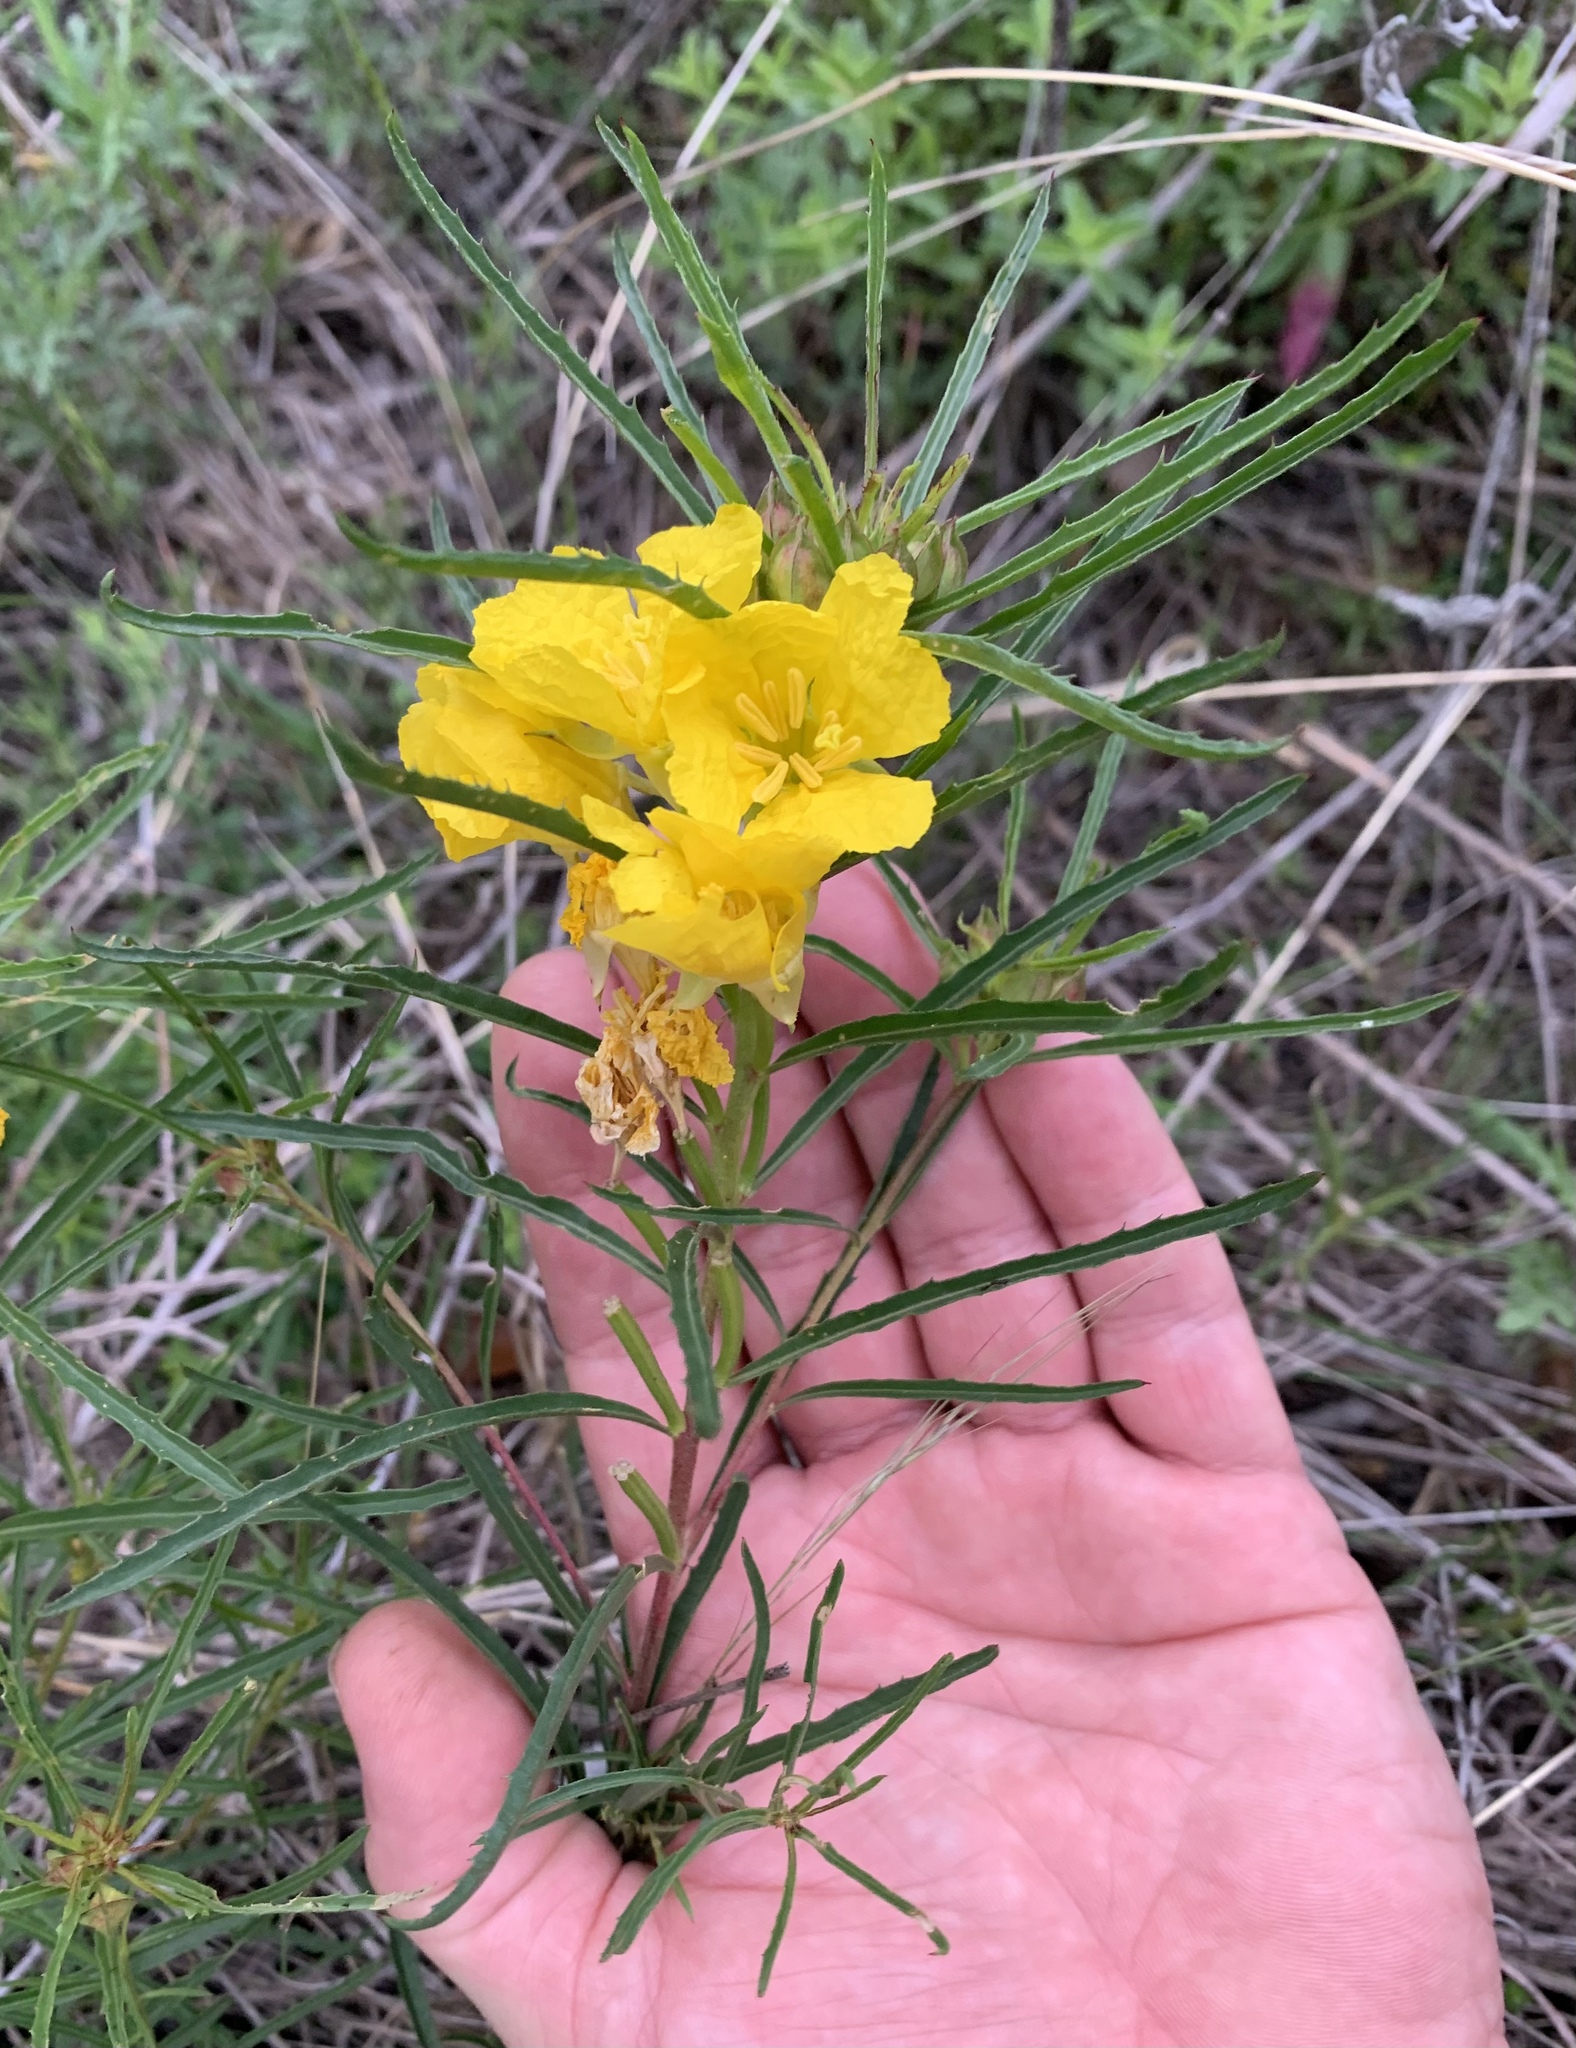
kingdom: Plantae
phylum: Tracheophyta
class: Magnoliopsida
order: Myrtales
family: Onagraceae
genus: Oenothera
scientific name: Oenothera
